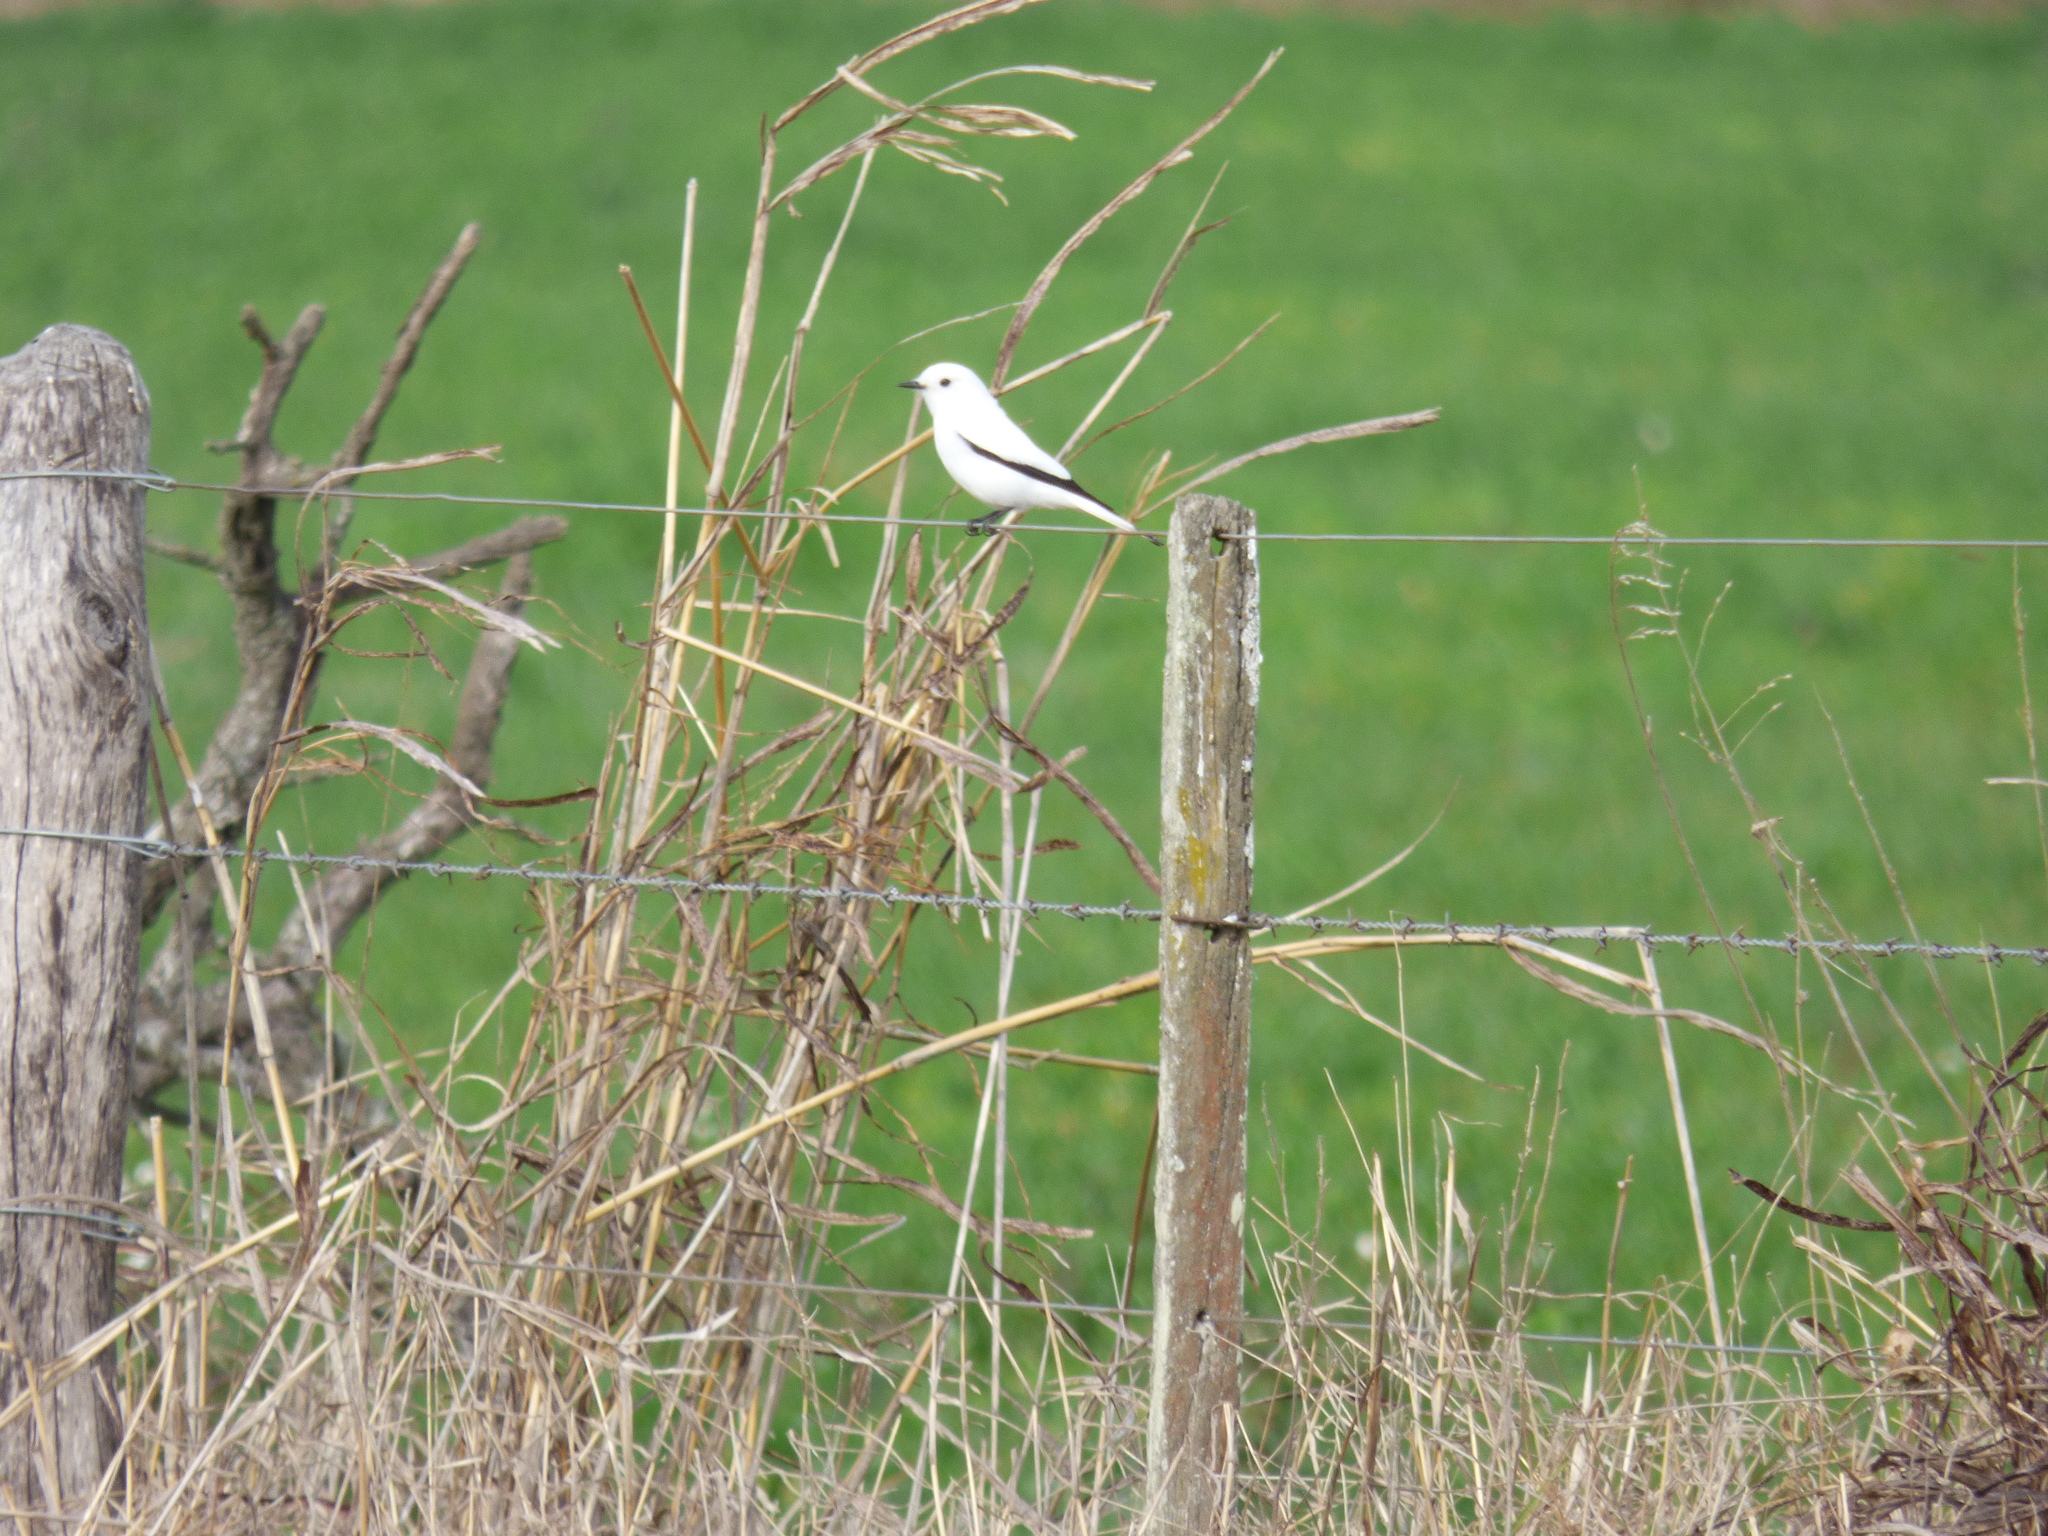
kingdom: Animalia
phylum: Chordata
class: Aves
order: Passeriformes
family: Tyrannidae
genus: Xolmis
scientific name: Xolmis irupero
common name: White monjita
